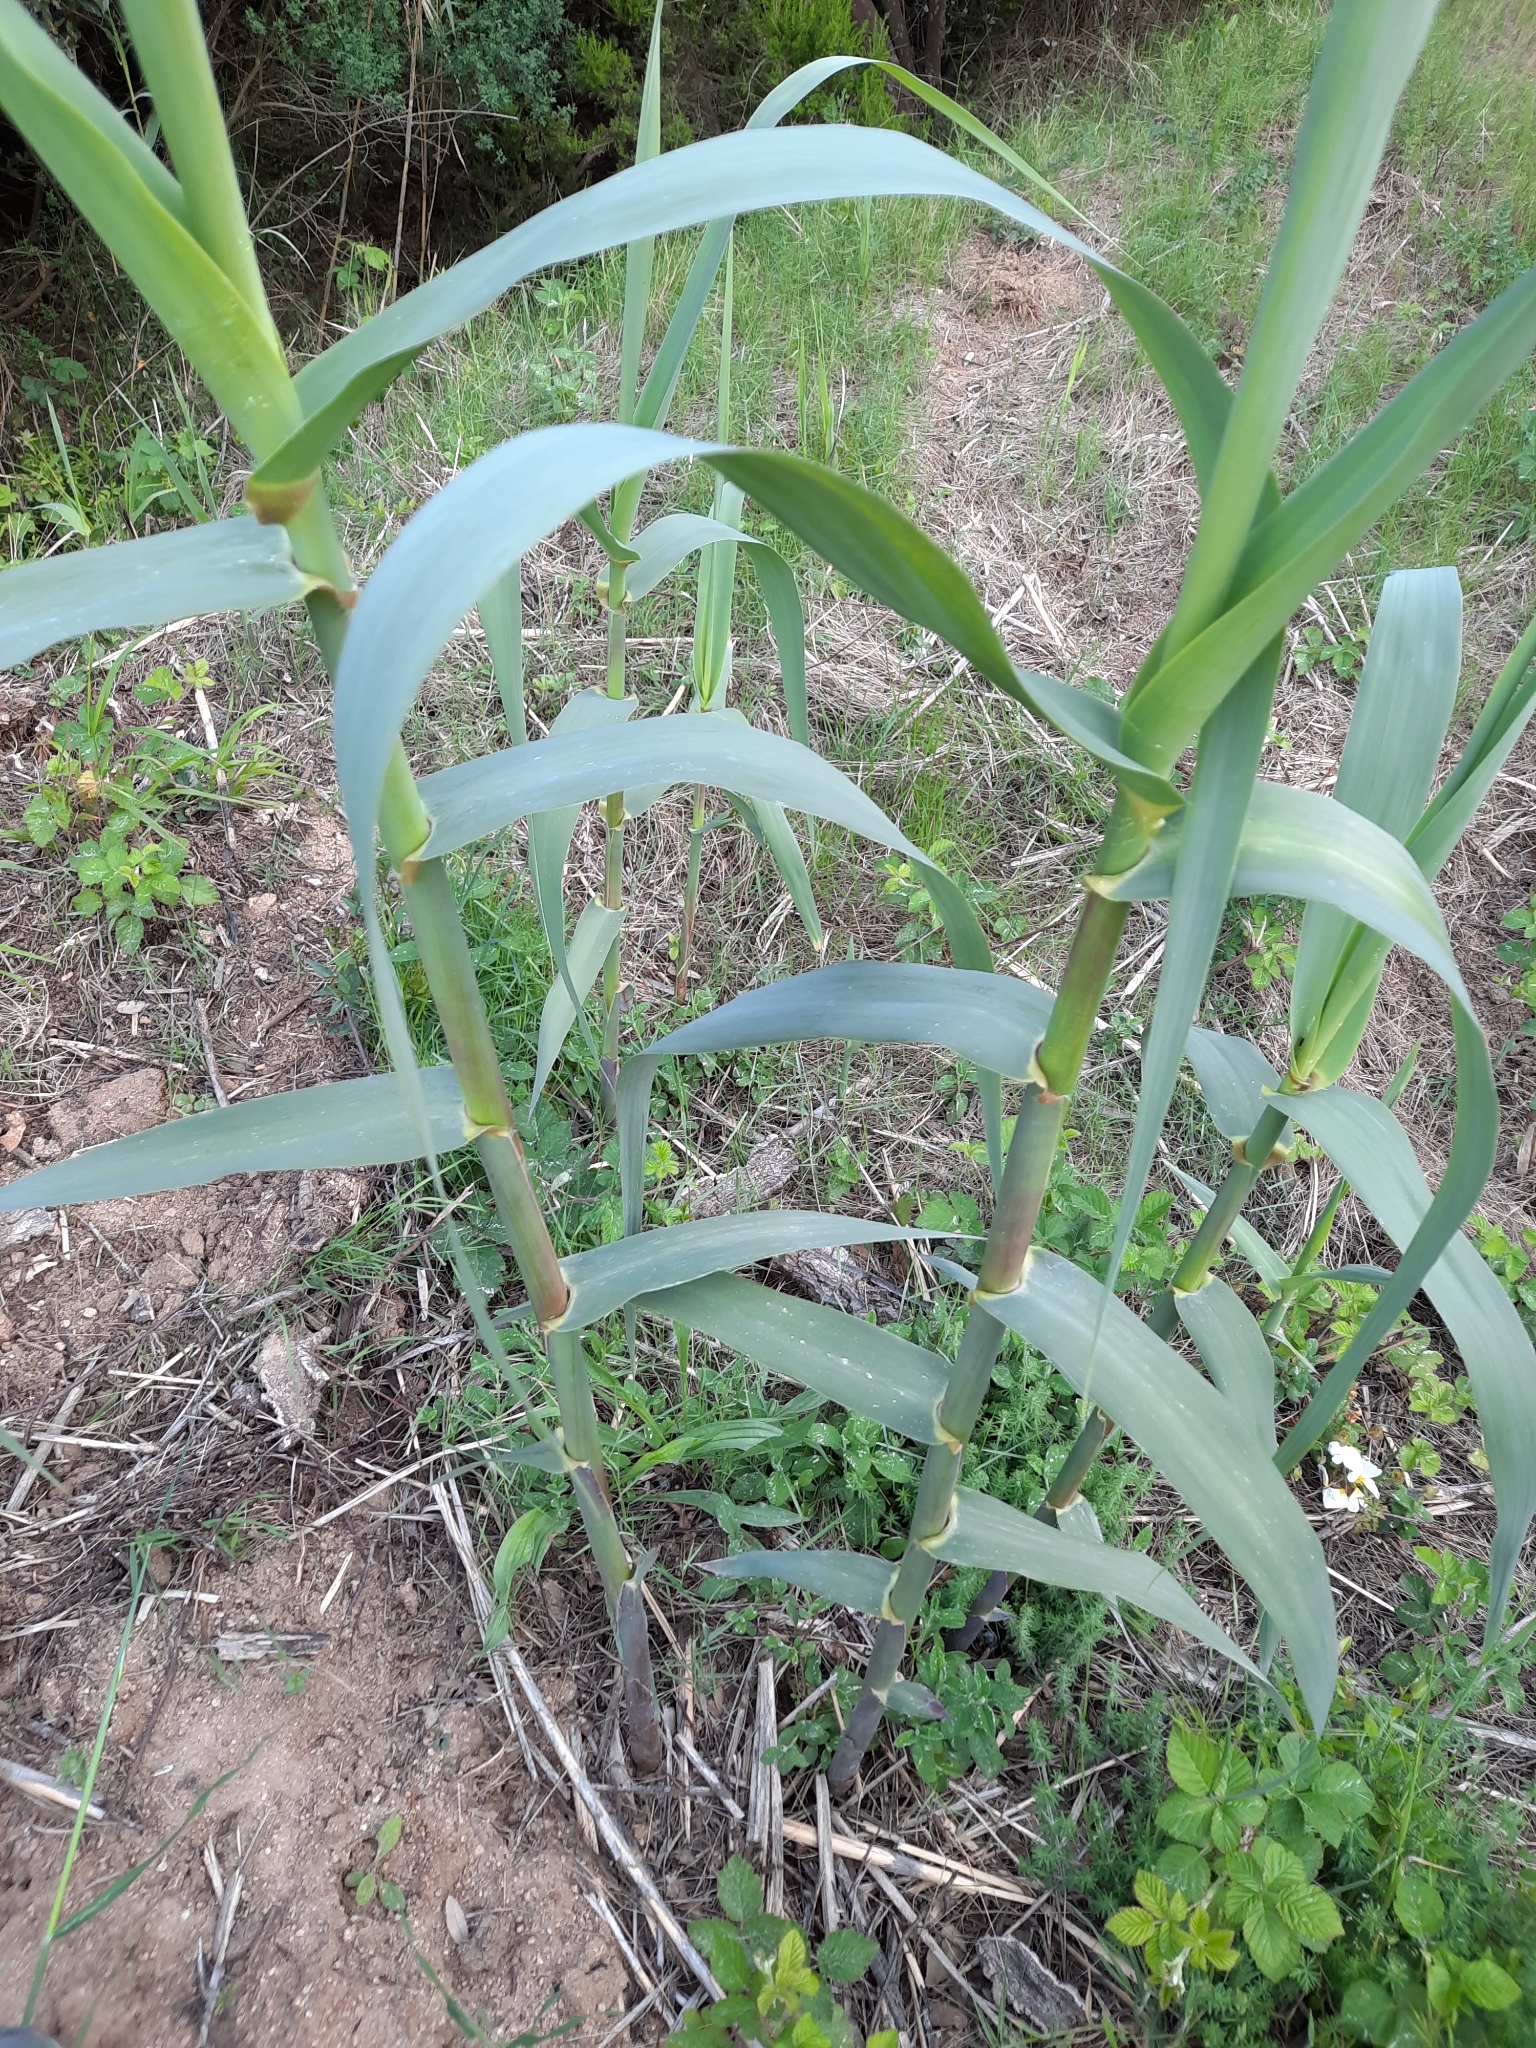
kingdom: Plantae
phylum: Tracheophyta
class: Liliopsida
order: Poales
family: Poaceae
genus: Arundo
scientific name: Arundo donax
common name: Giant reed
